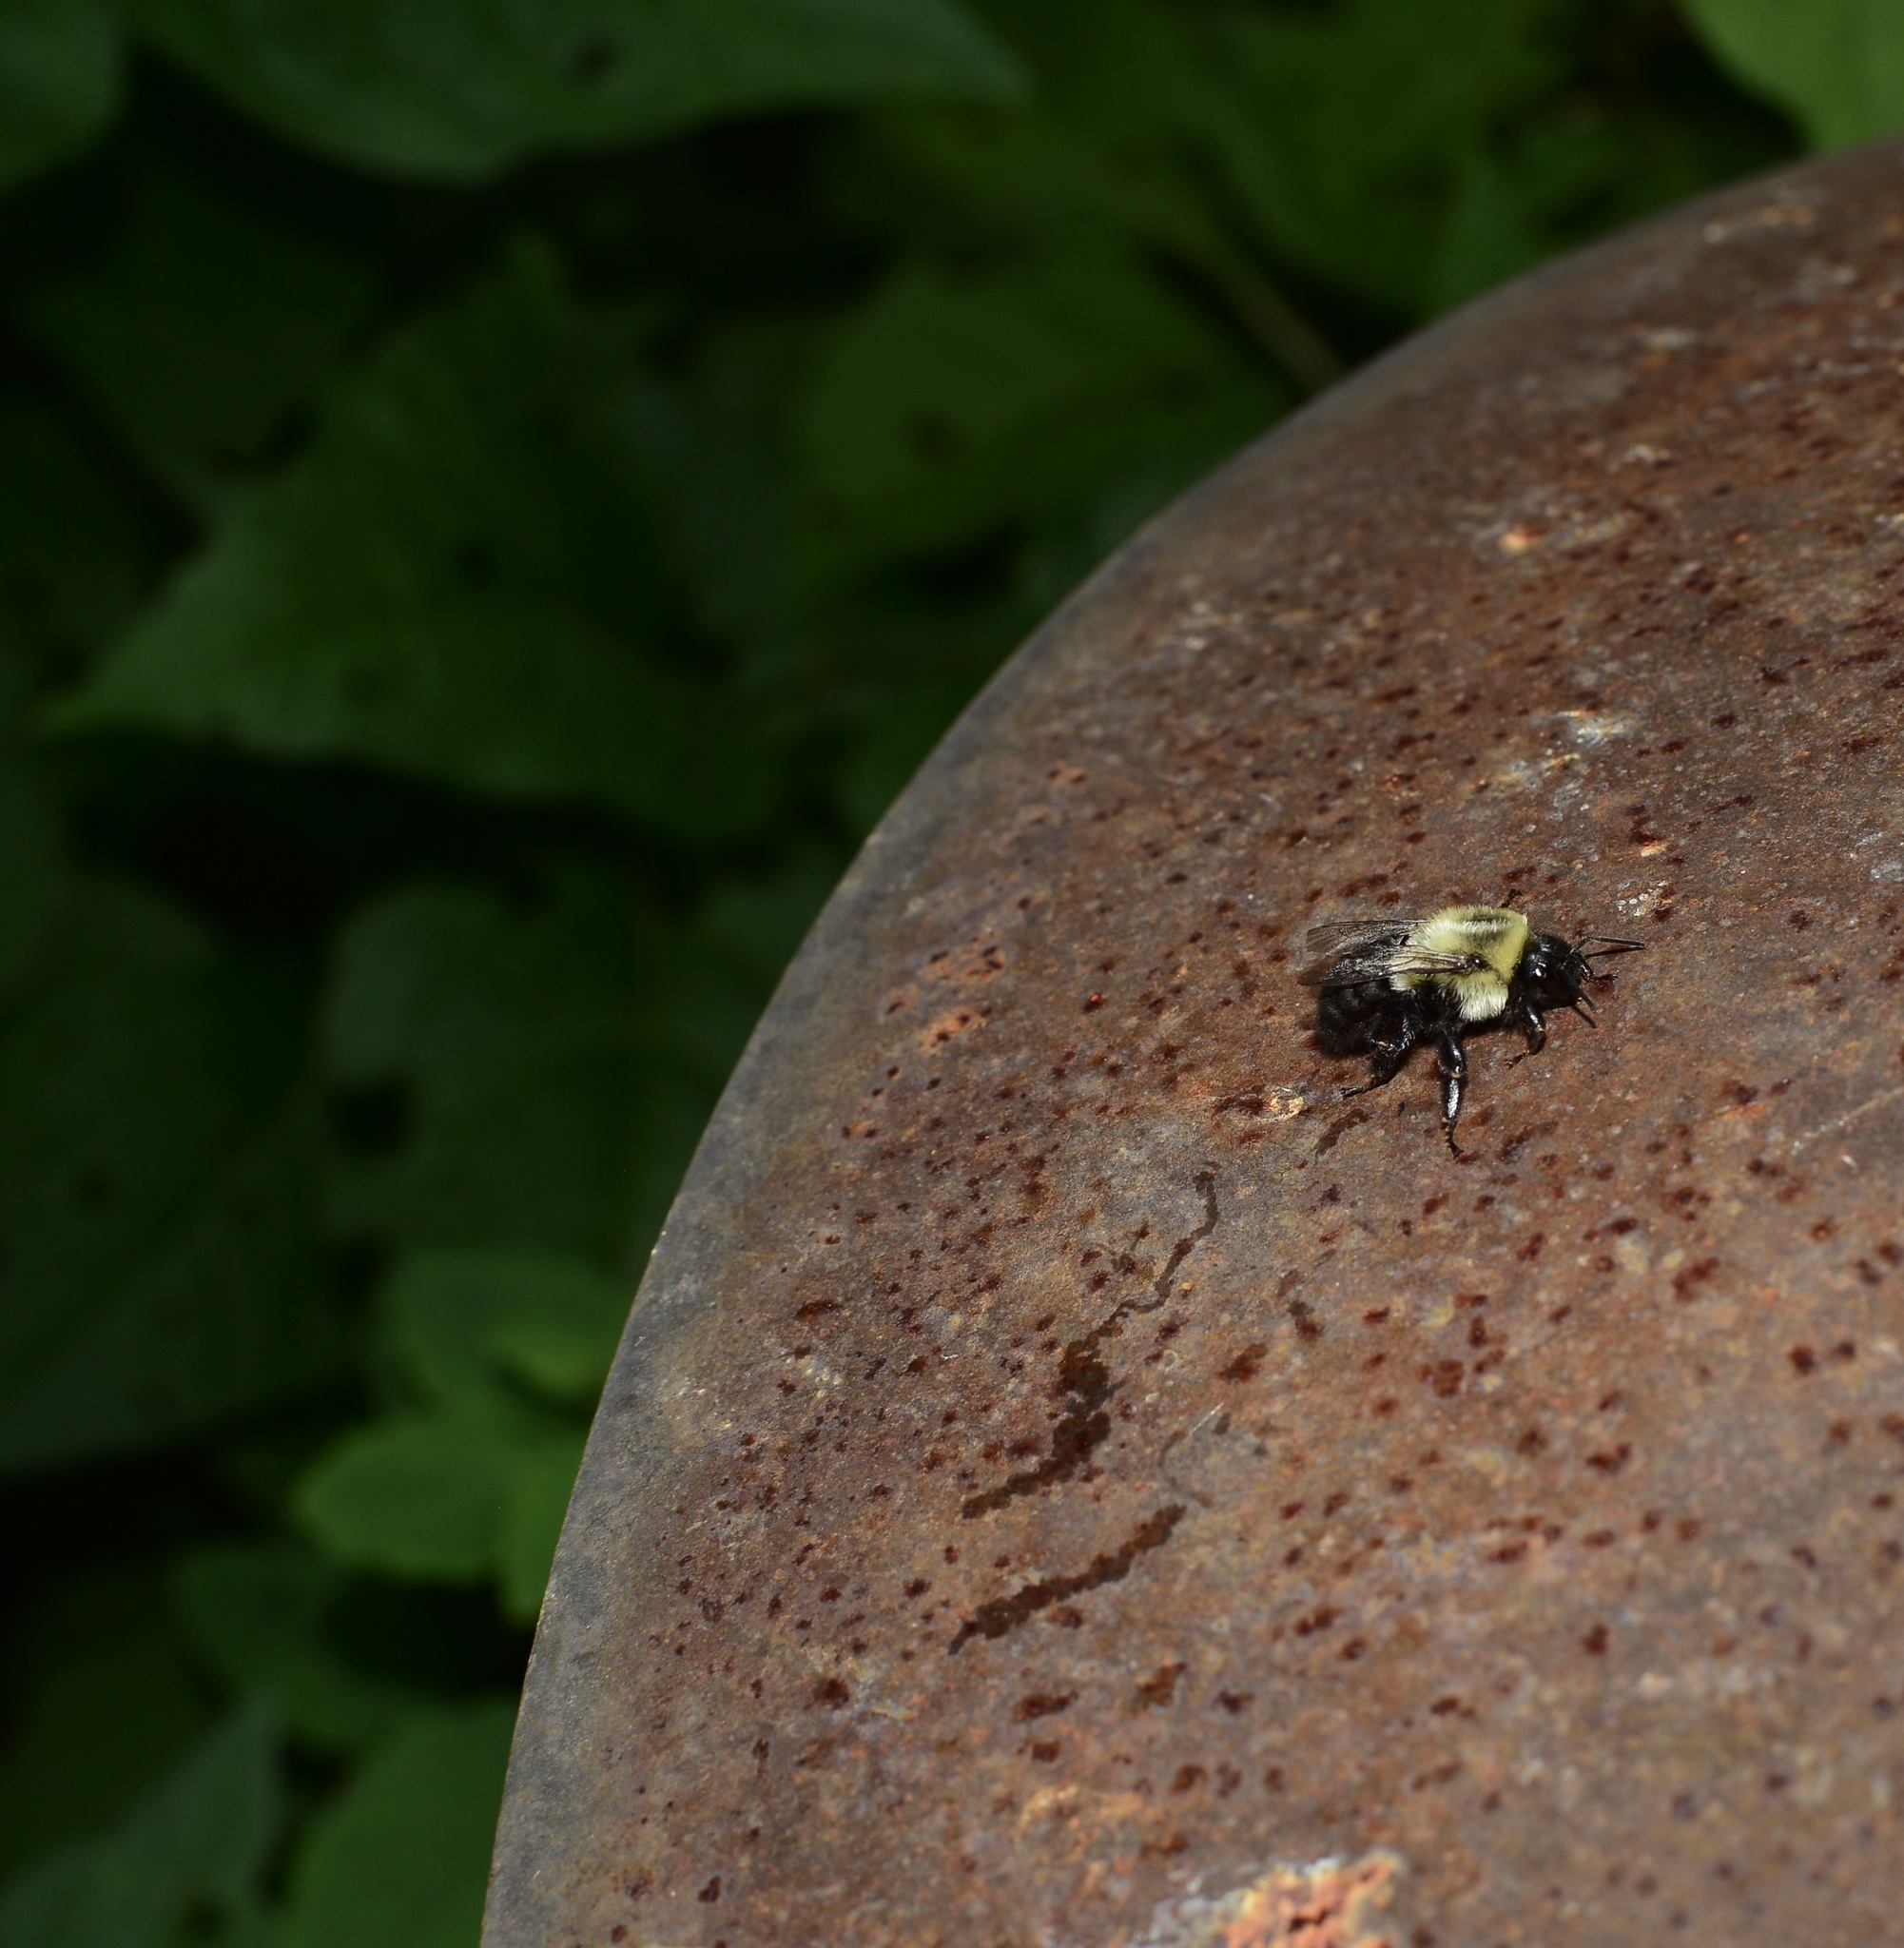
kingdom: Animalia
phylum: Arthropoda
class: Insecta
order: Hymenoptera
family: Apidae
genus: Bombus
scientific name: Bombus impatiens
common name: Common eastern bumble bee
